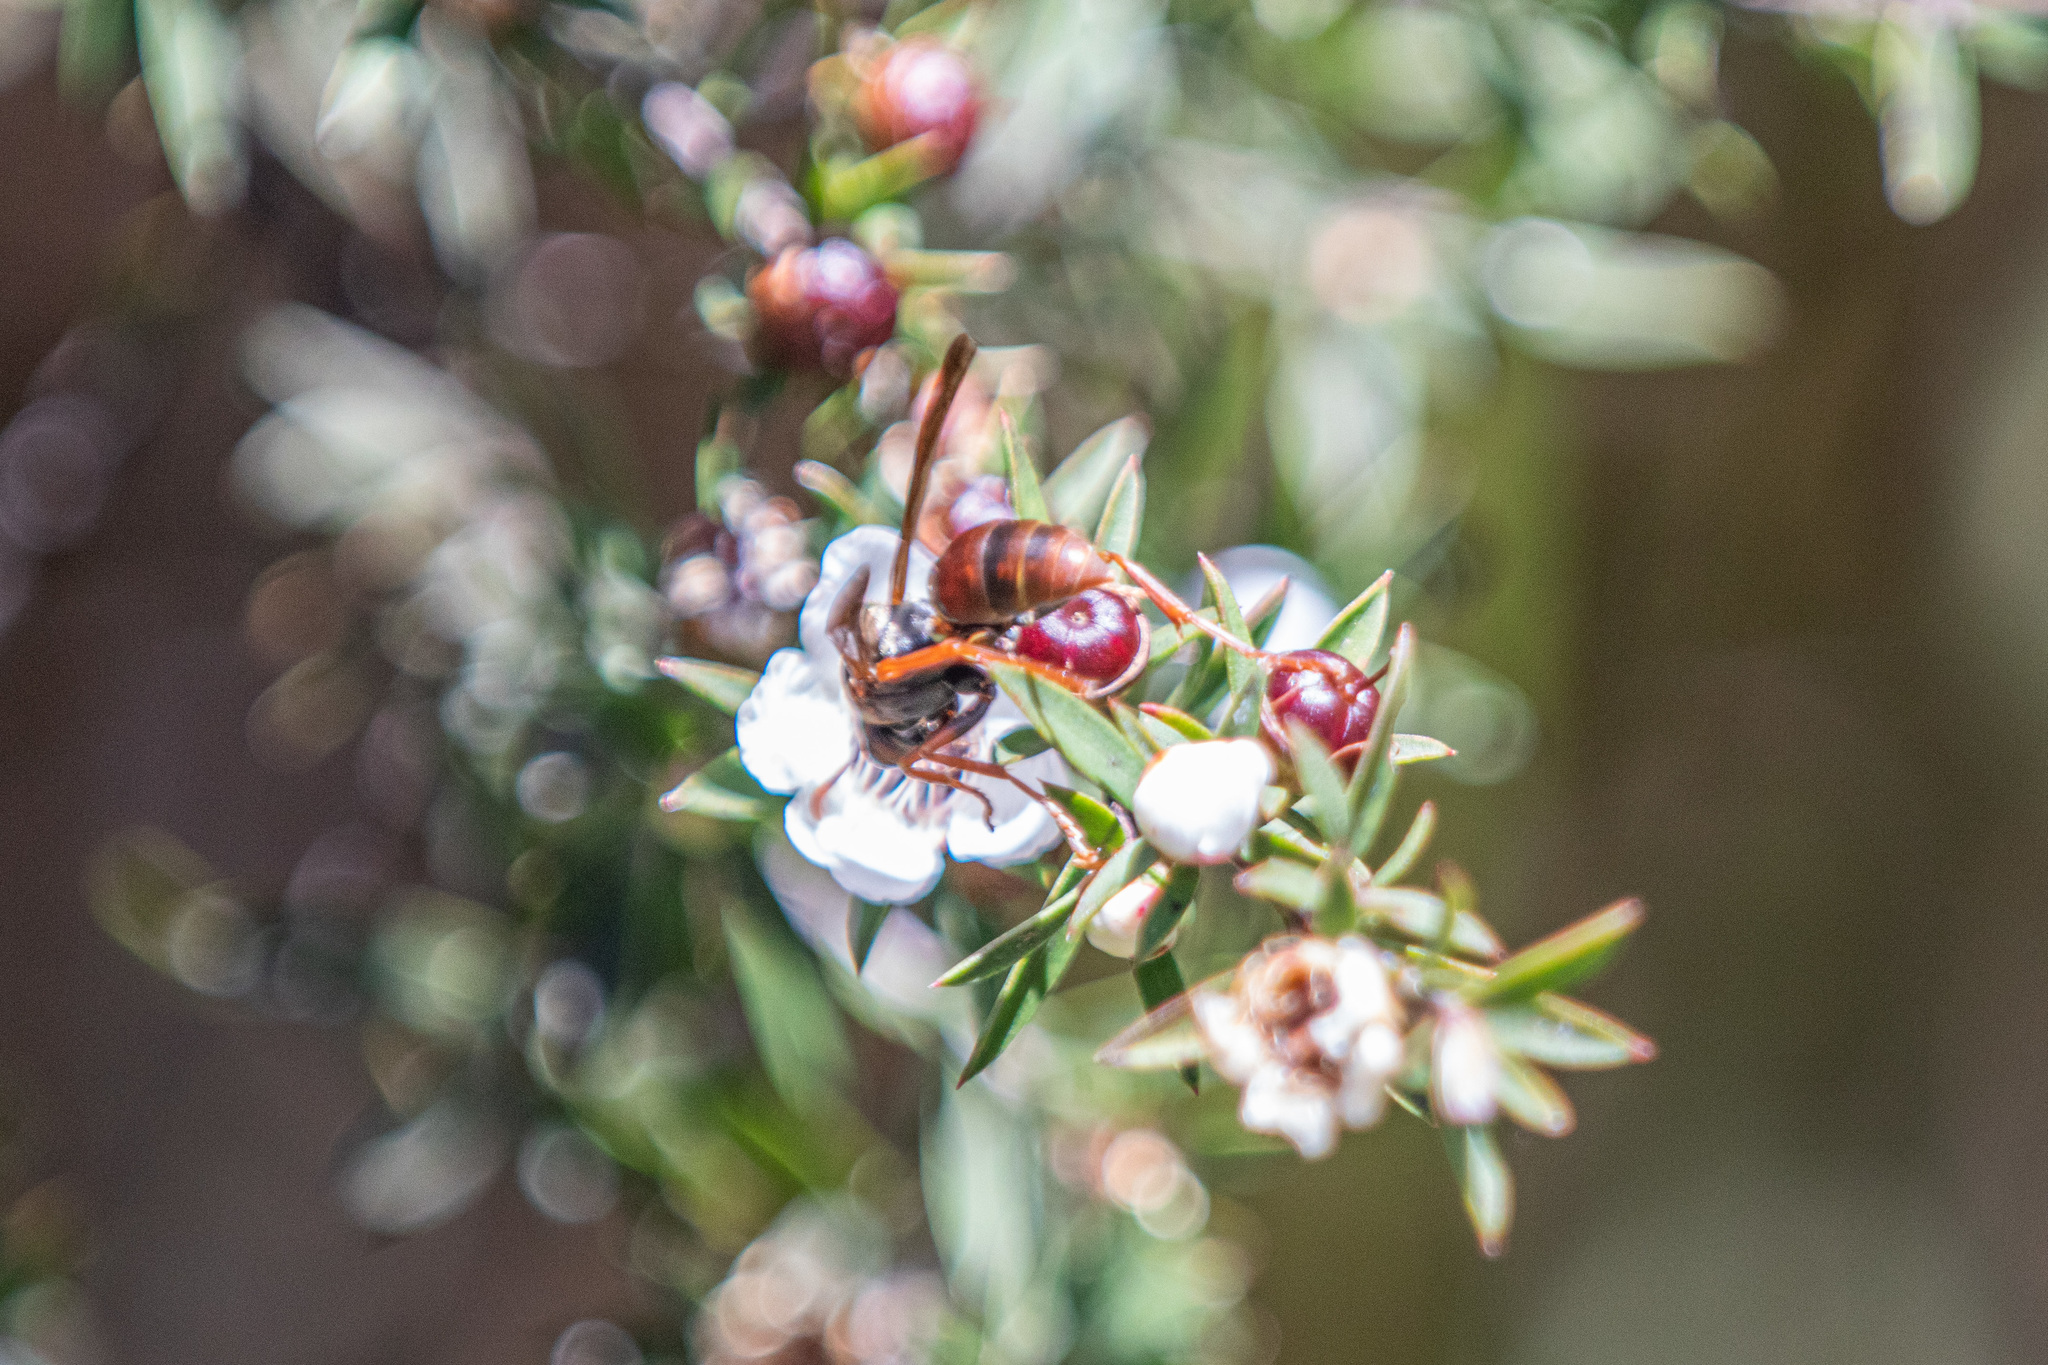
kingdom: Animalia
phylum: Arthropoda
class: Insecta
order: Hymenoptera
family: Eumenidae
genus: Polistes
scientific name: Polistes humilis
